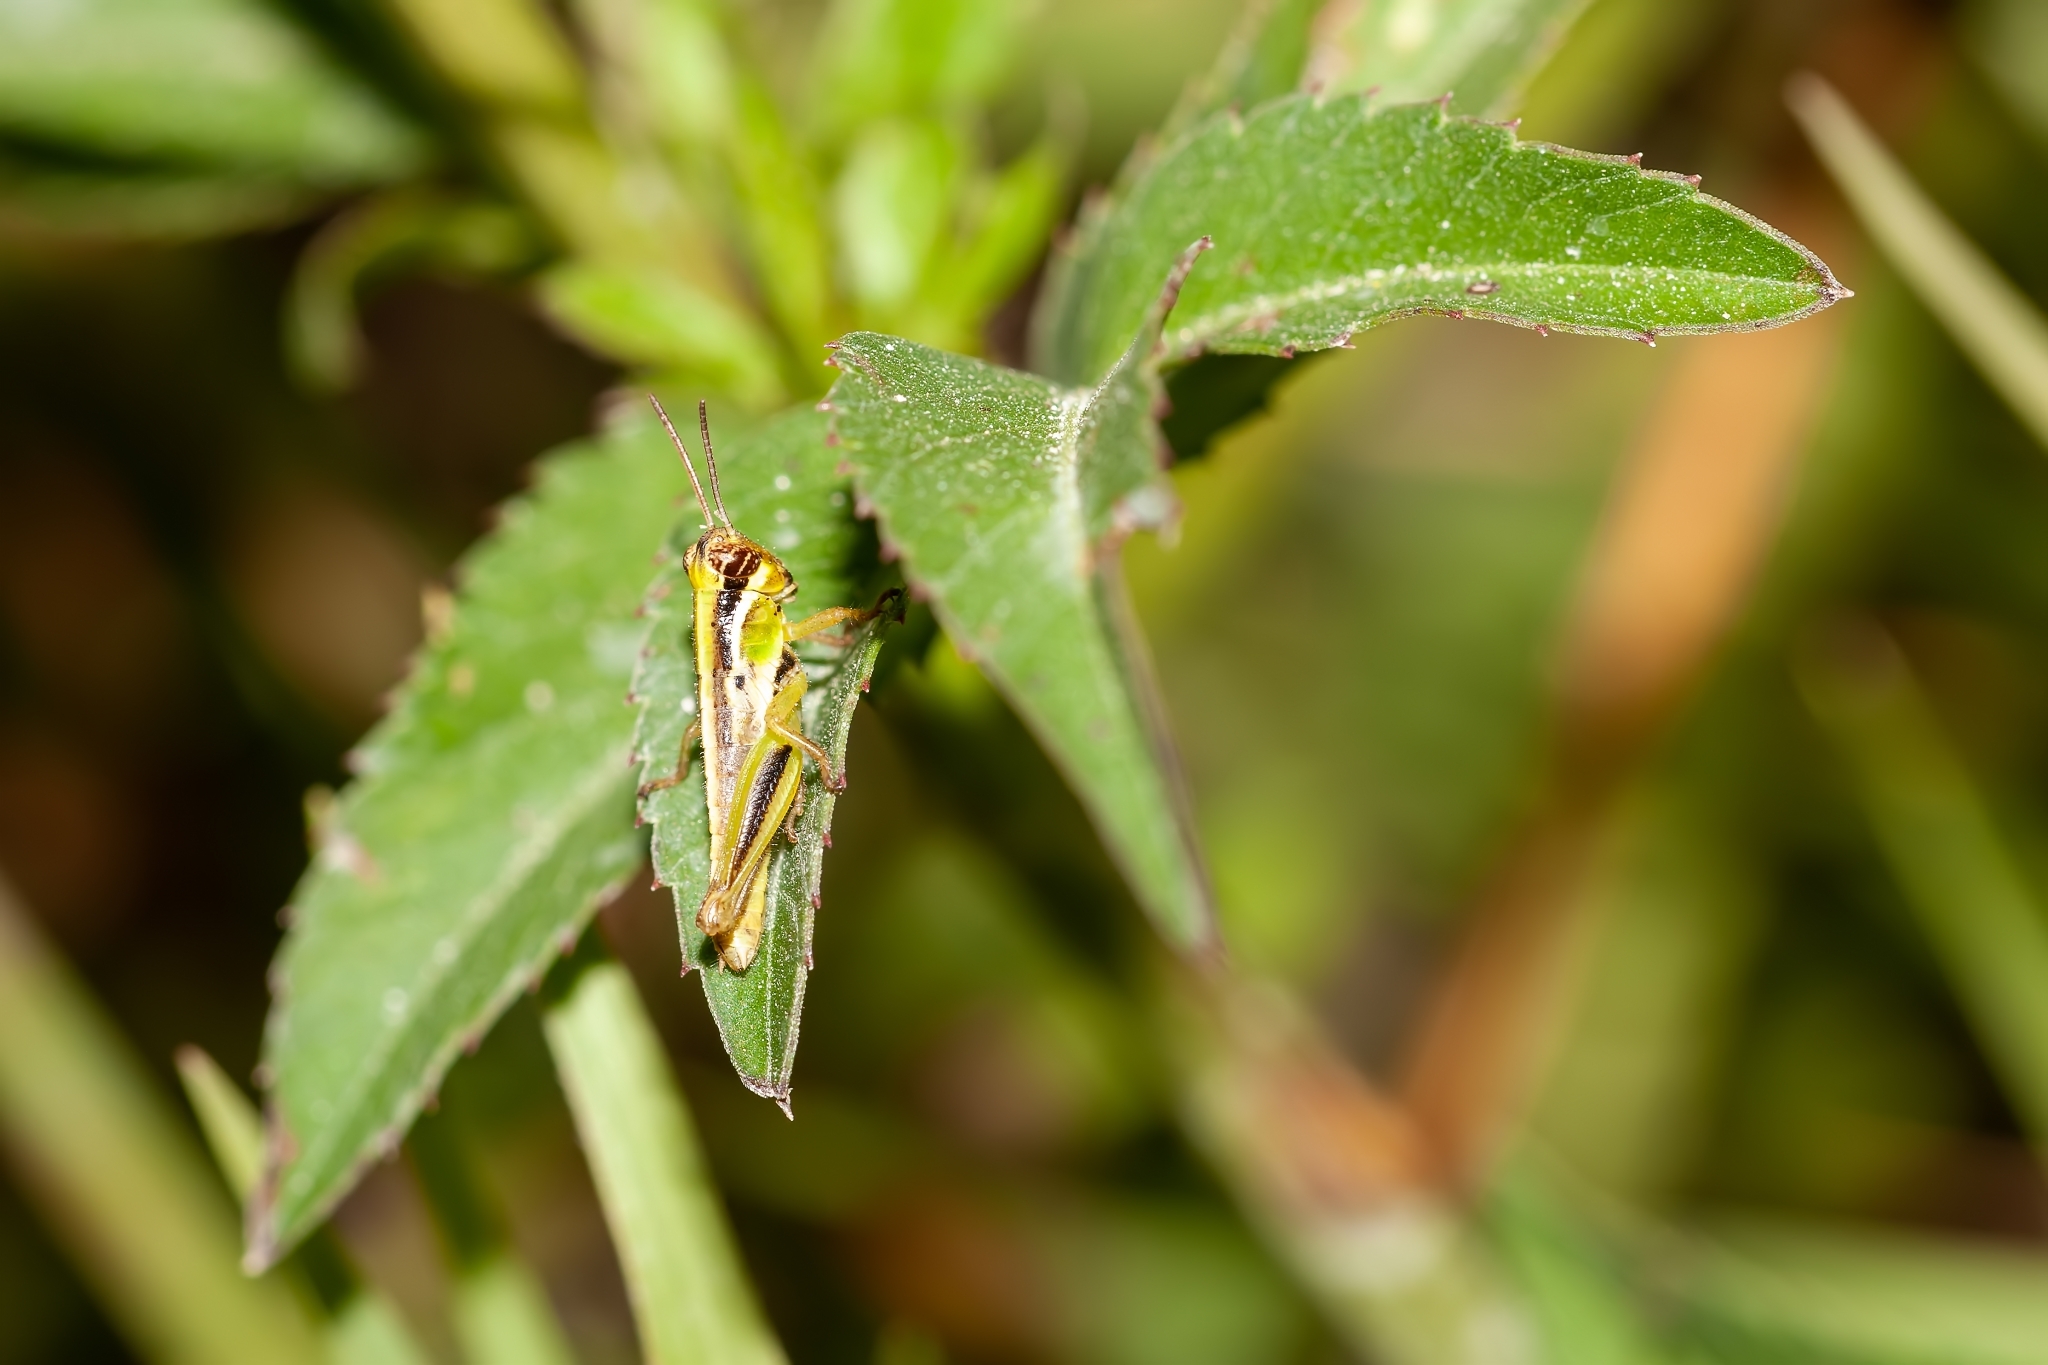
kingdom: Animalia
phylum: Arthropoda
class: Insecta
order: Orthoptera
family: Acrididae
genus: Melanoplus
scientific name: Melanoplus keeleri
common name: Keeler grasshopper
